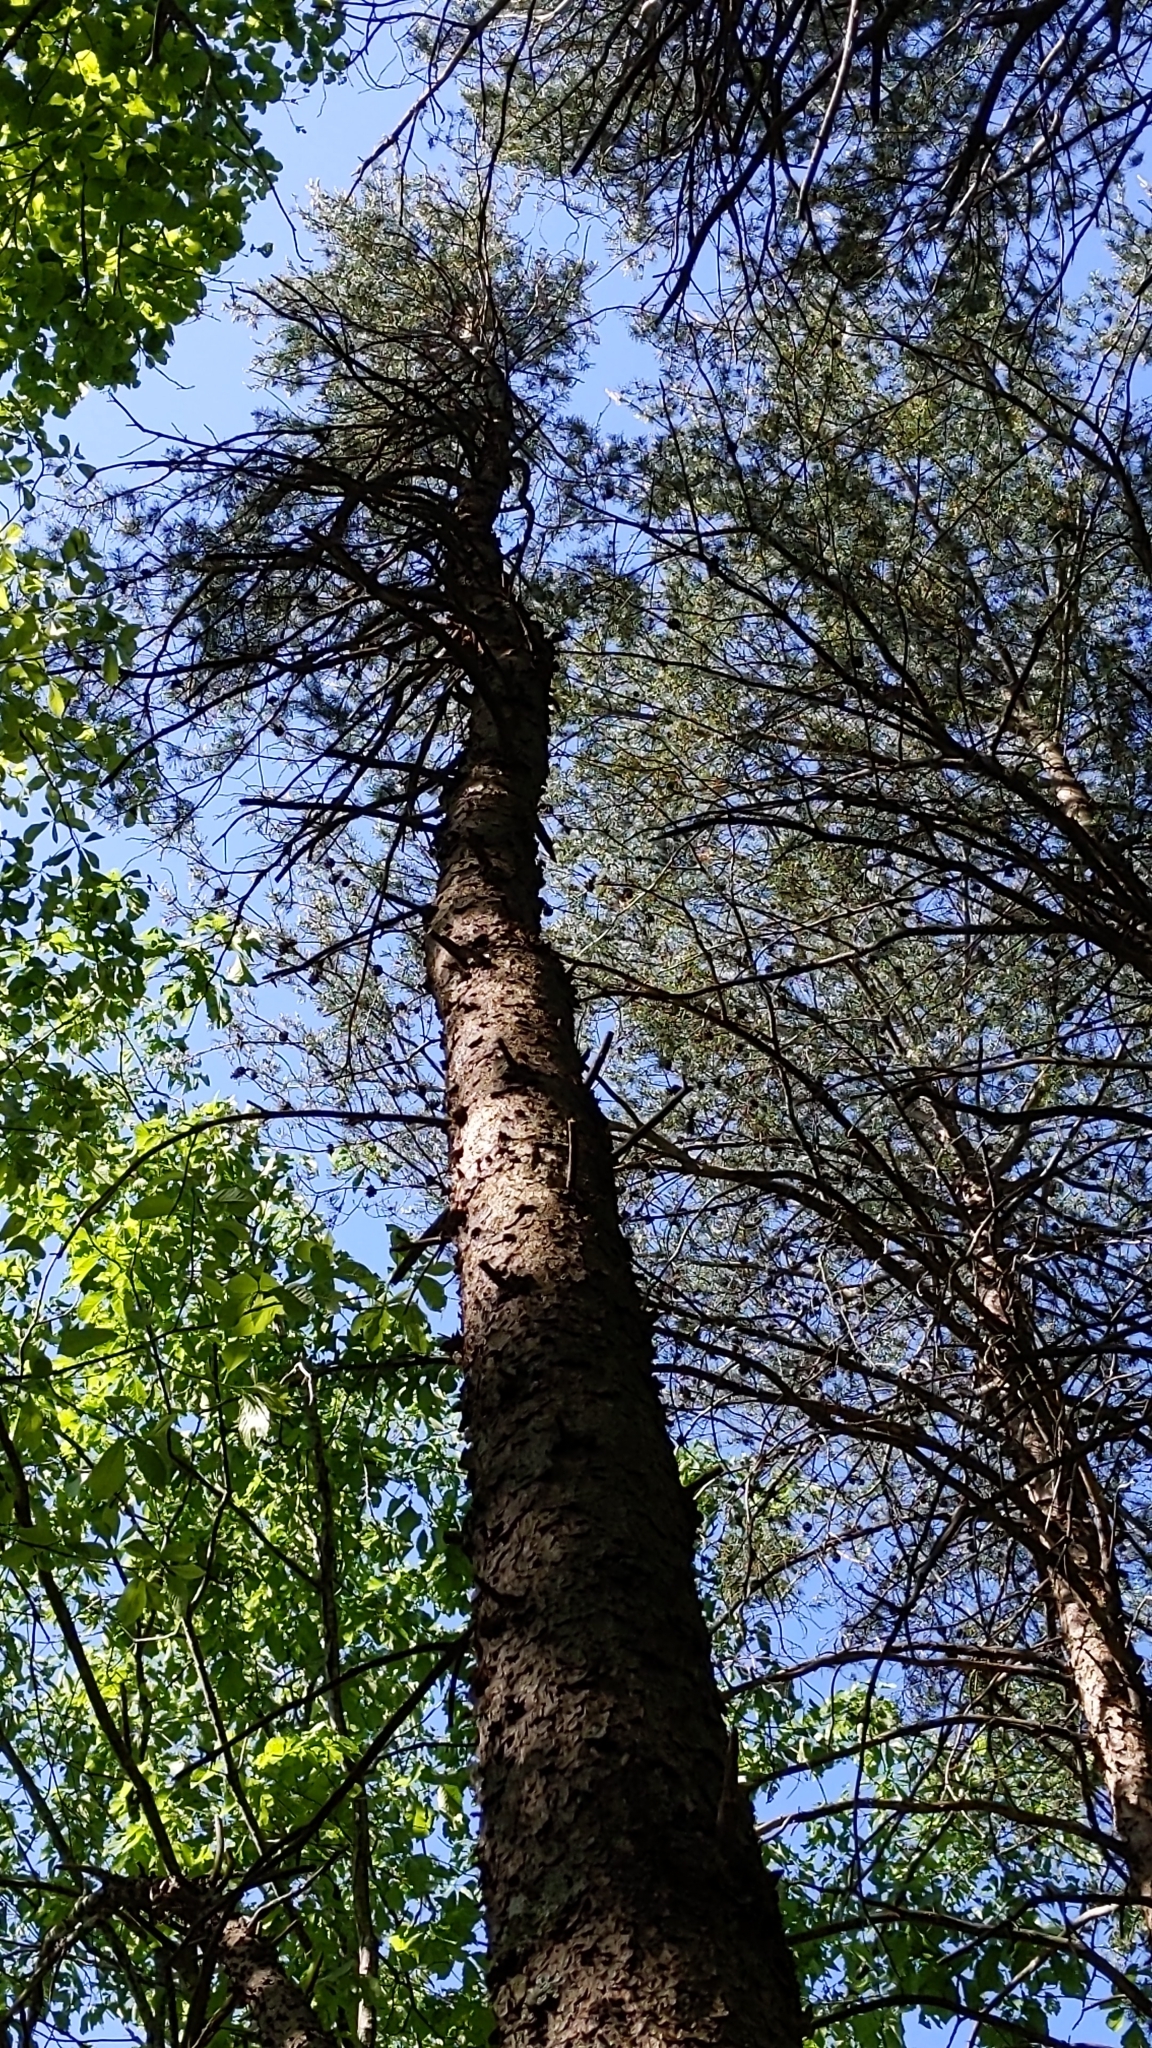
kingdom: Plantae
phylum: Tracheophyta
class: Pinopsida
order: Pinales
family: Pinaceae
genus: Pinus
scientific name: Pinus virginiana
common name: Scrub pine
